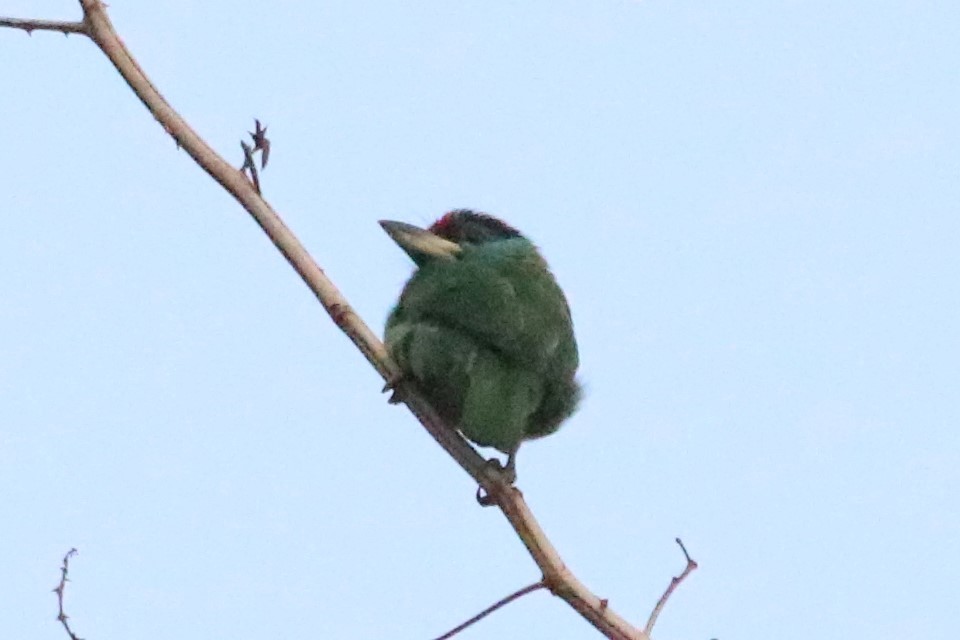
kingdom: Animalia
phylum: Chordata
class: Aves
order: Piciformes
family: Megalaimidae
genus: Psilopogon
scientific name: Psilopogon asiaticus
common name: Blue-throated barbet
